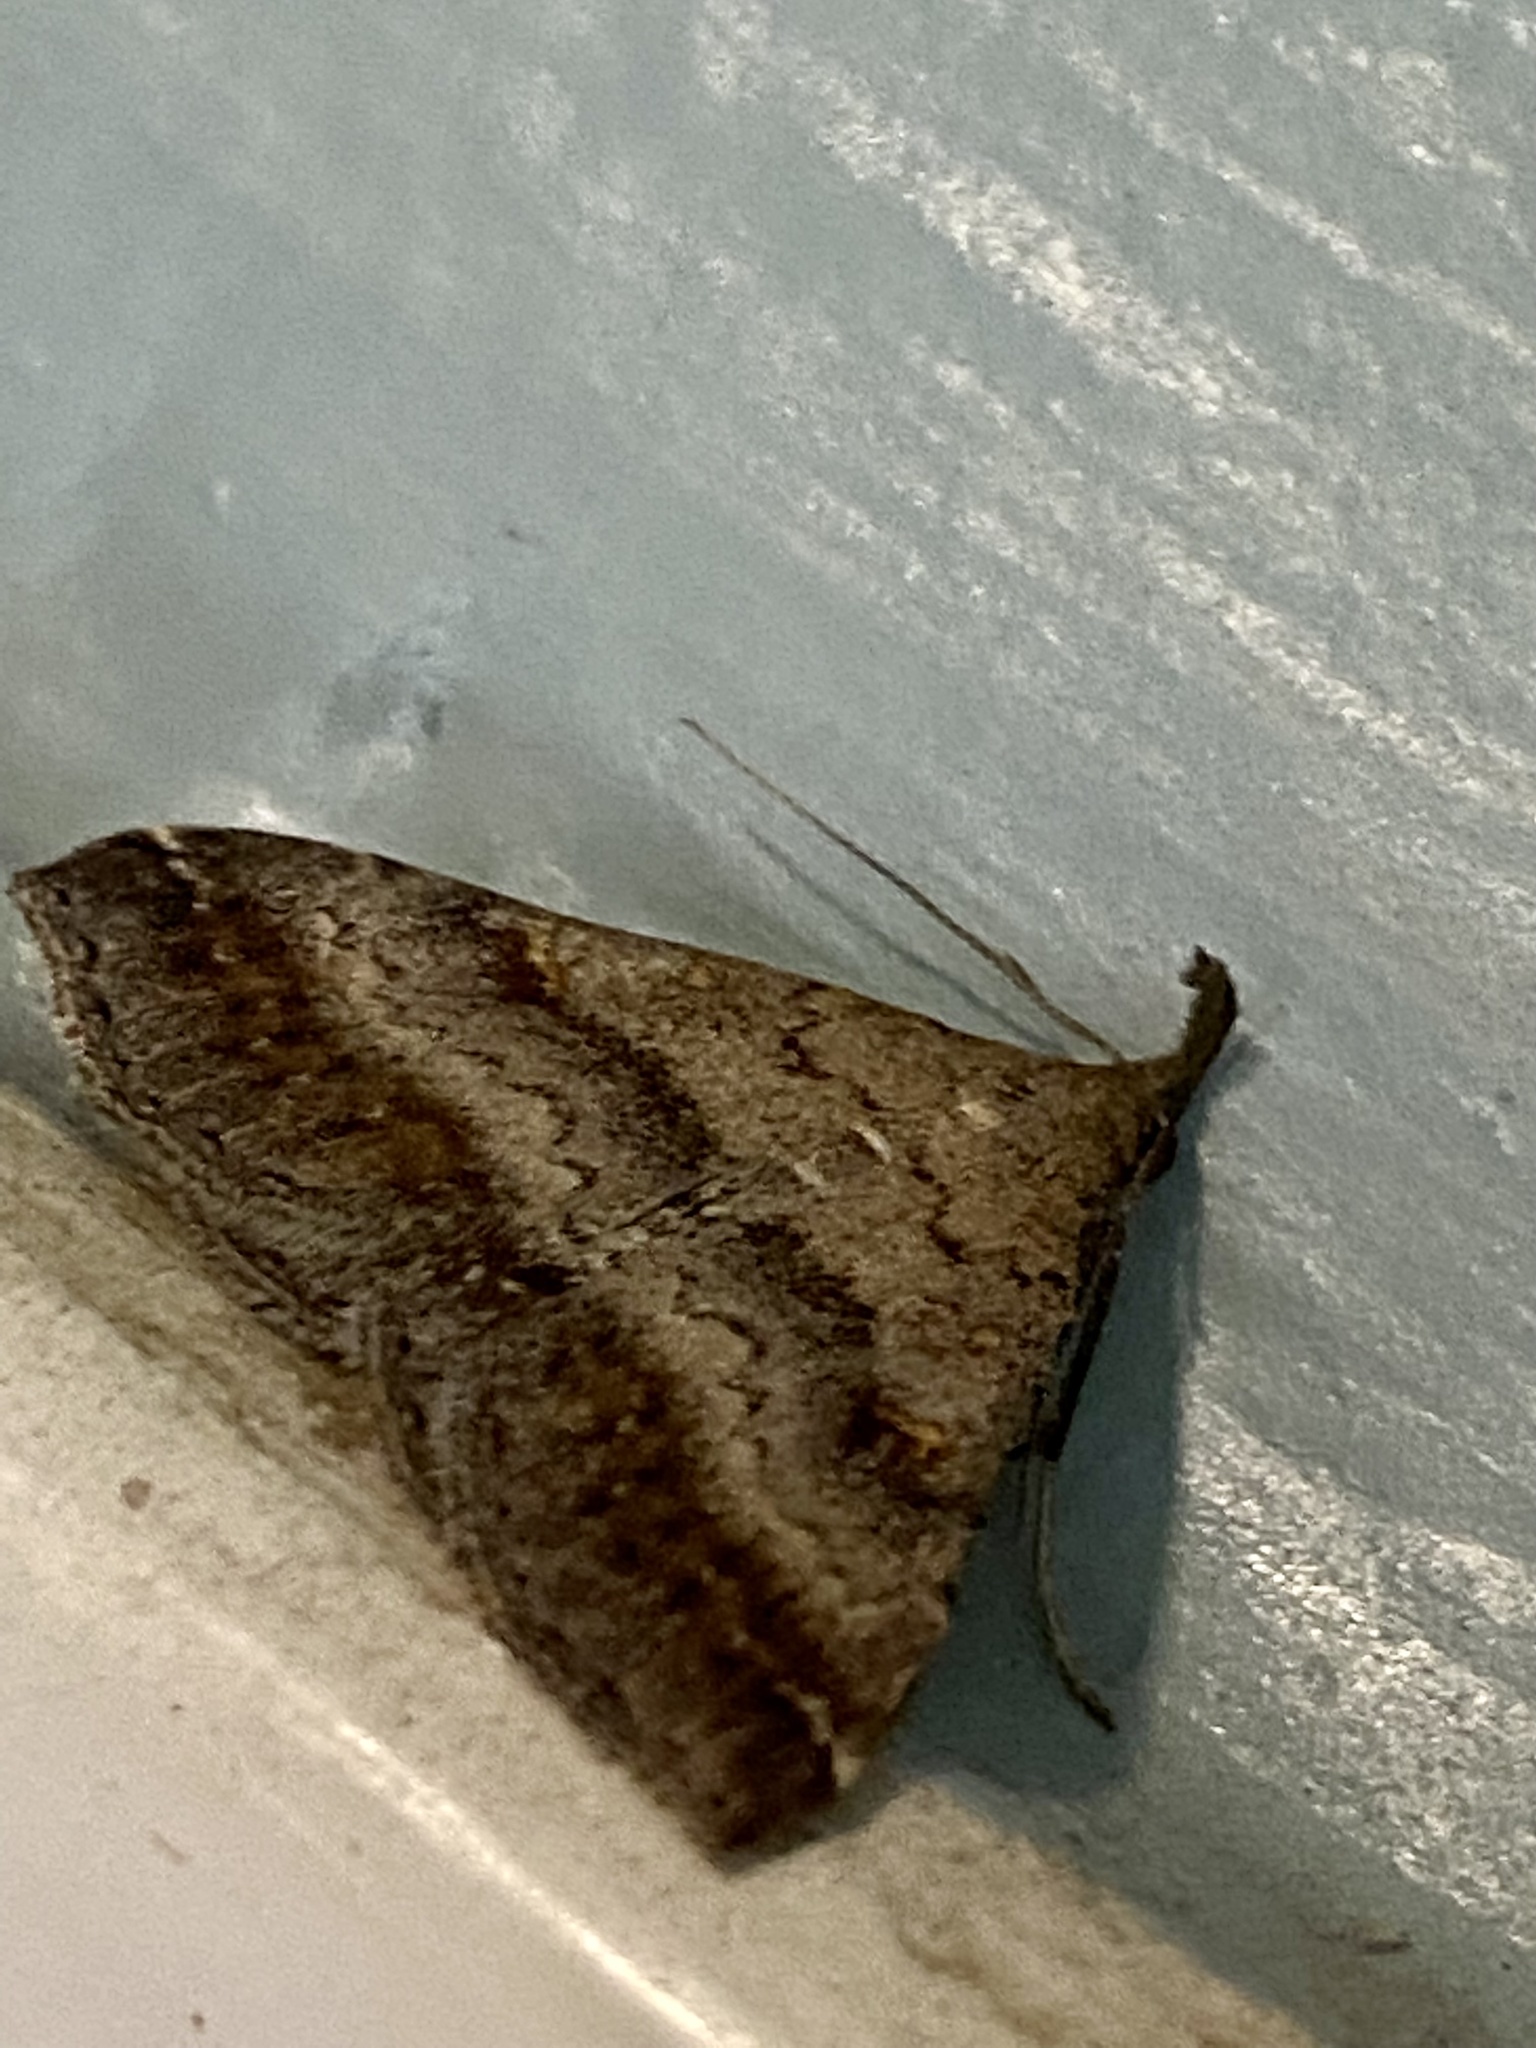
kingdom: Animalia
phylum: Arthropoda
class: Insecta
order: Lepidoptera
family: Erebidae
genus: Tetanolita
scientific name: Tetanolita palligera
